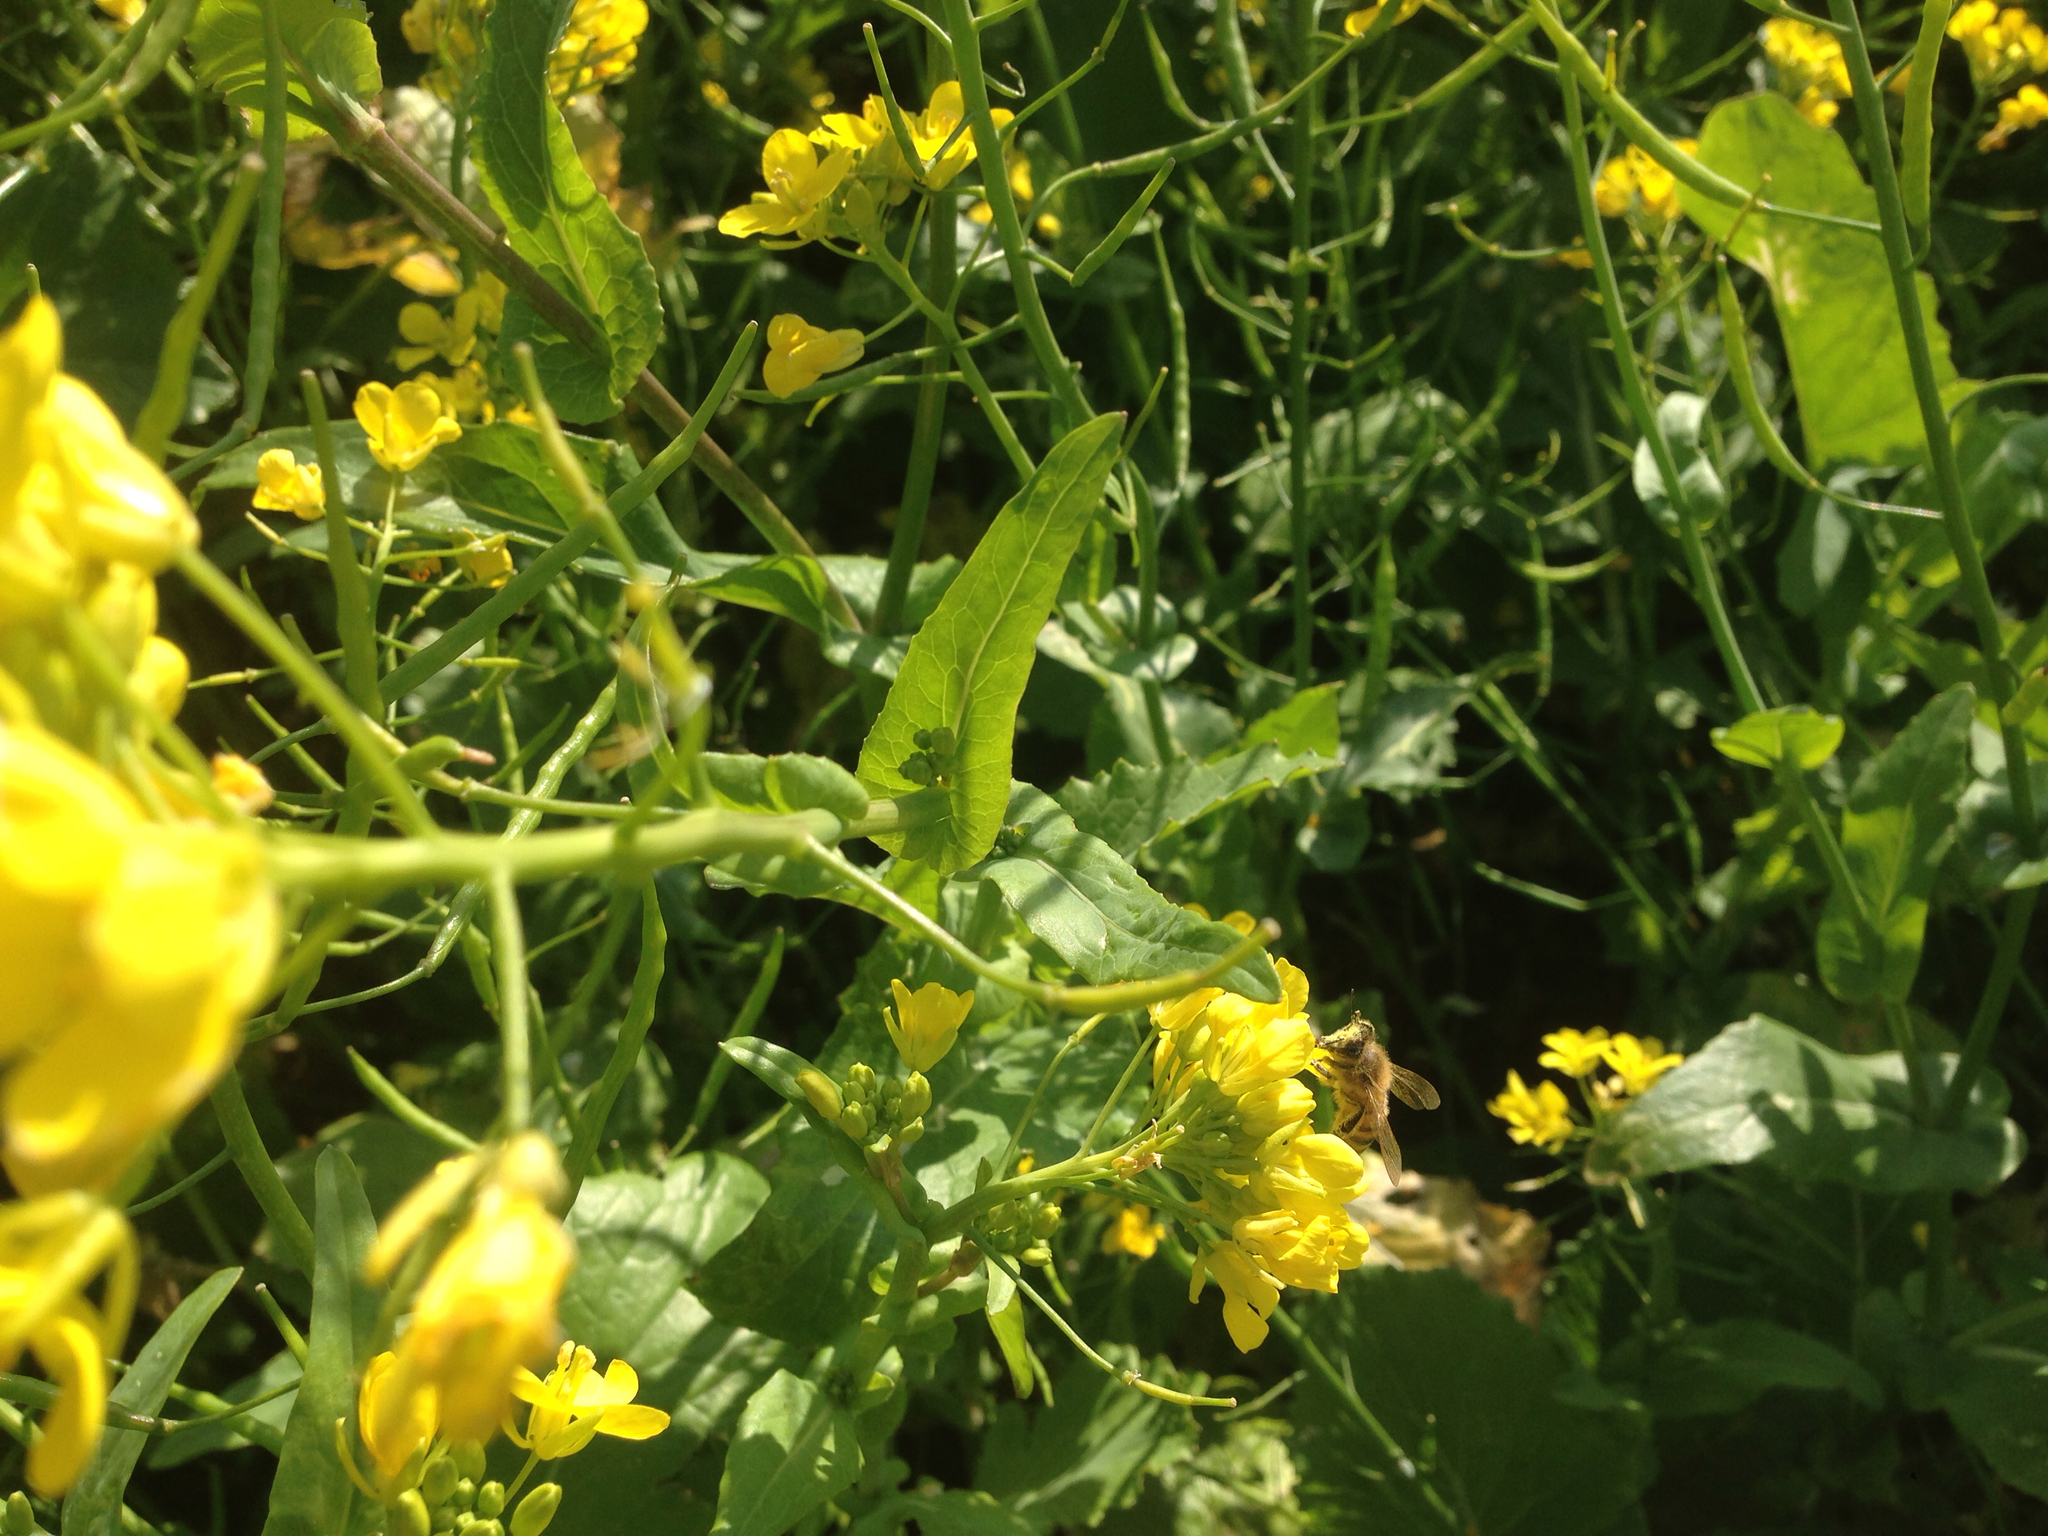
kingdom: Animalia
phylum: Arthropoda
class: Insecta
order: Hymenoptera
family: Apidae
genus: Apis
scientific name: Apis mellifera
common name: Honey bee
